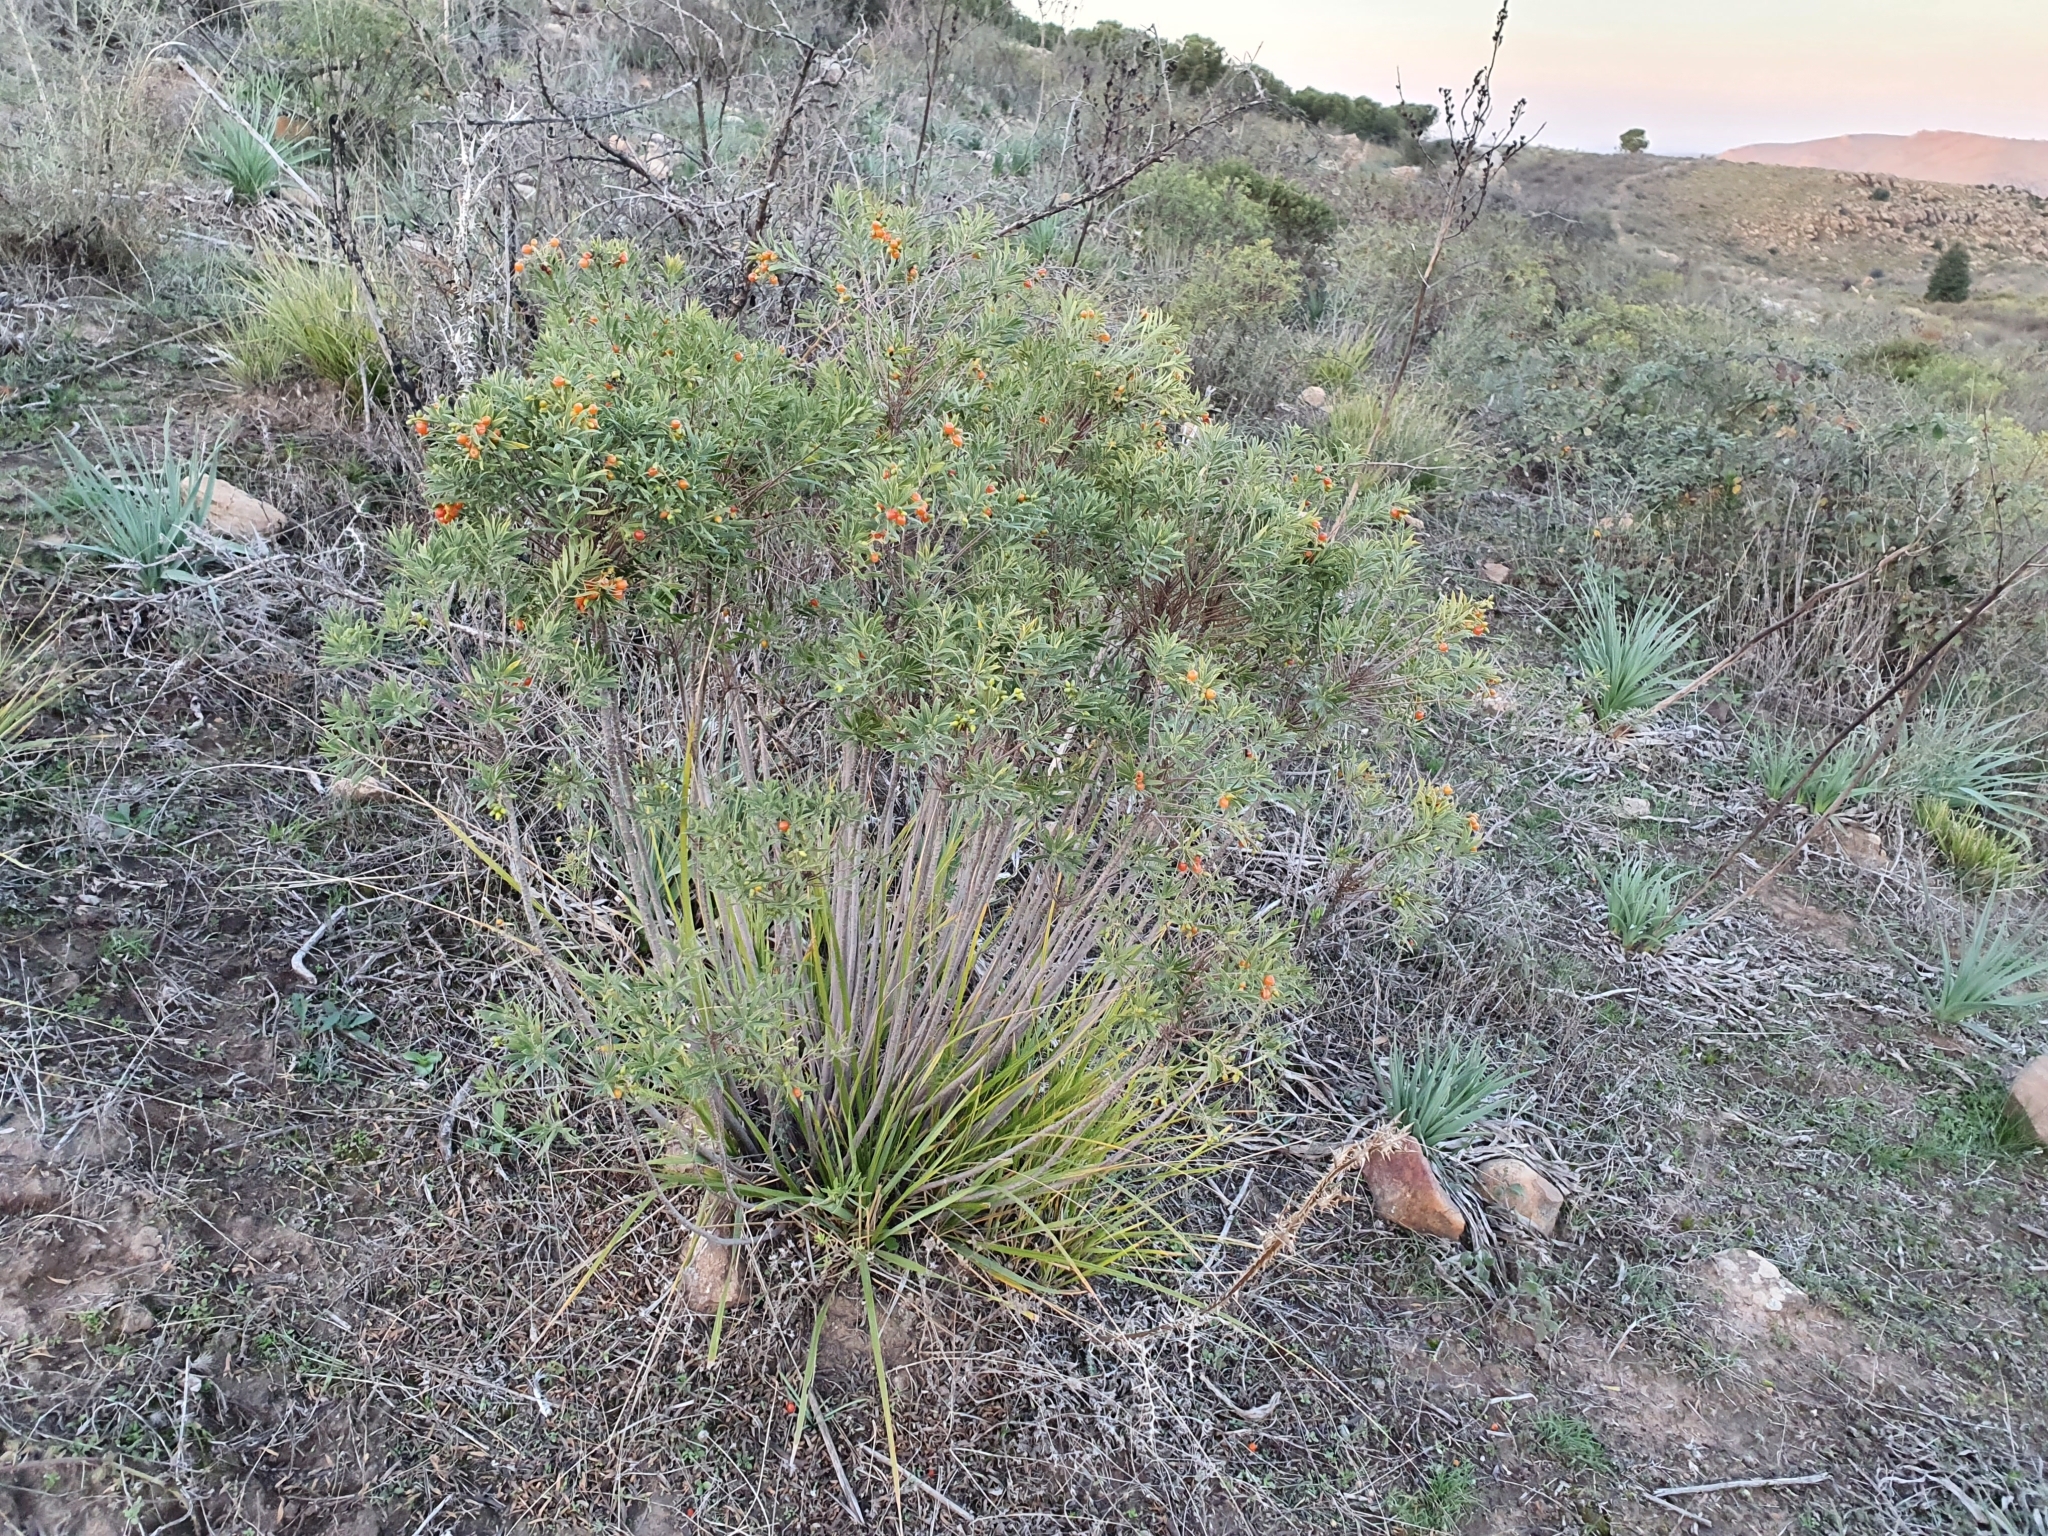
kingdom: Plantae
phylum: Tracheophyta
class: Magnoliopsida
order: Malvales
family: Thymelaeaceae
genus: Daphne
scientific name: Daphne gnidium
